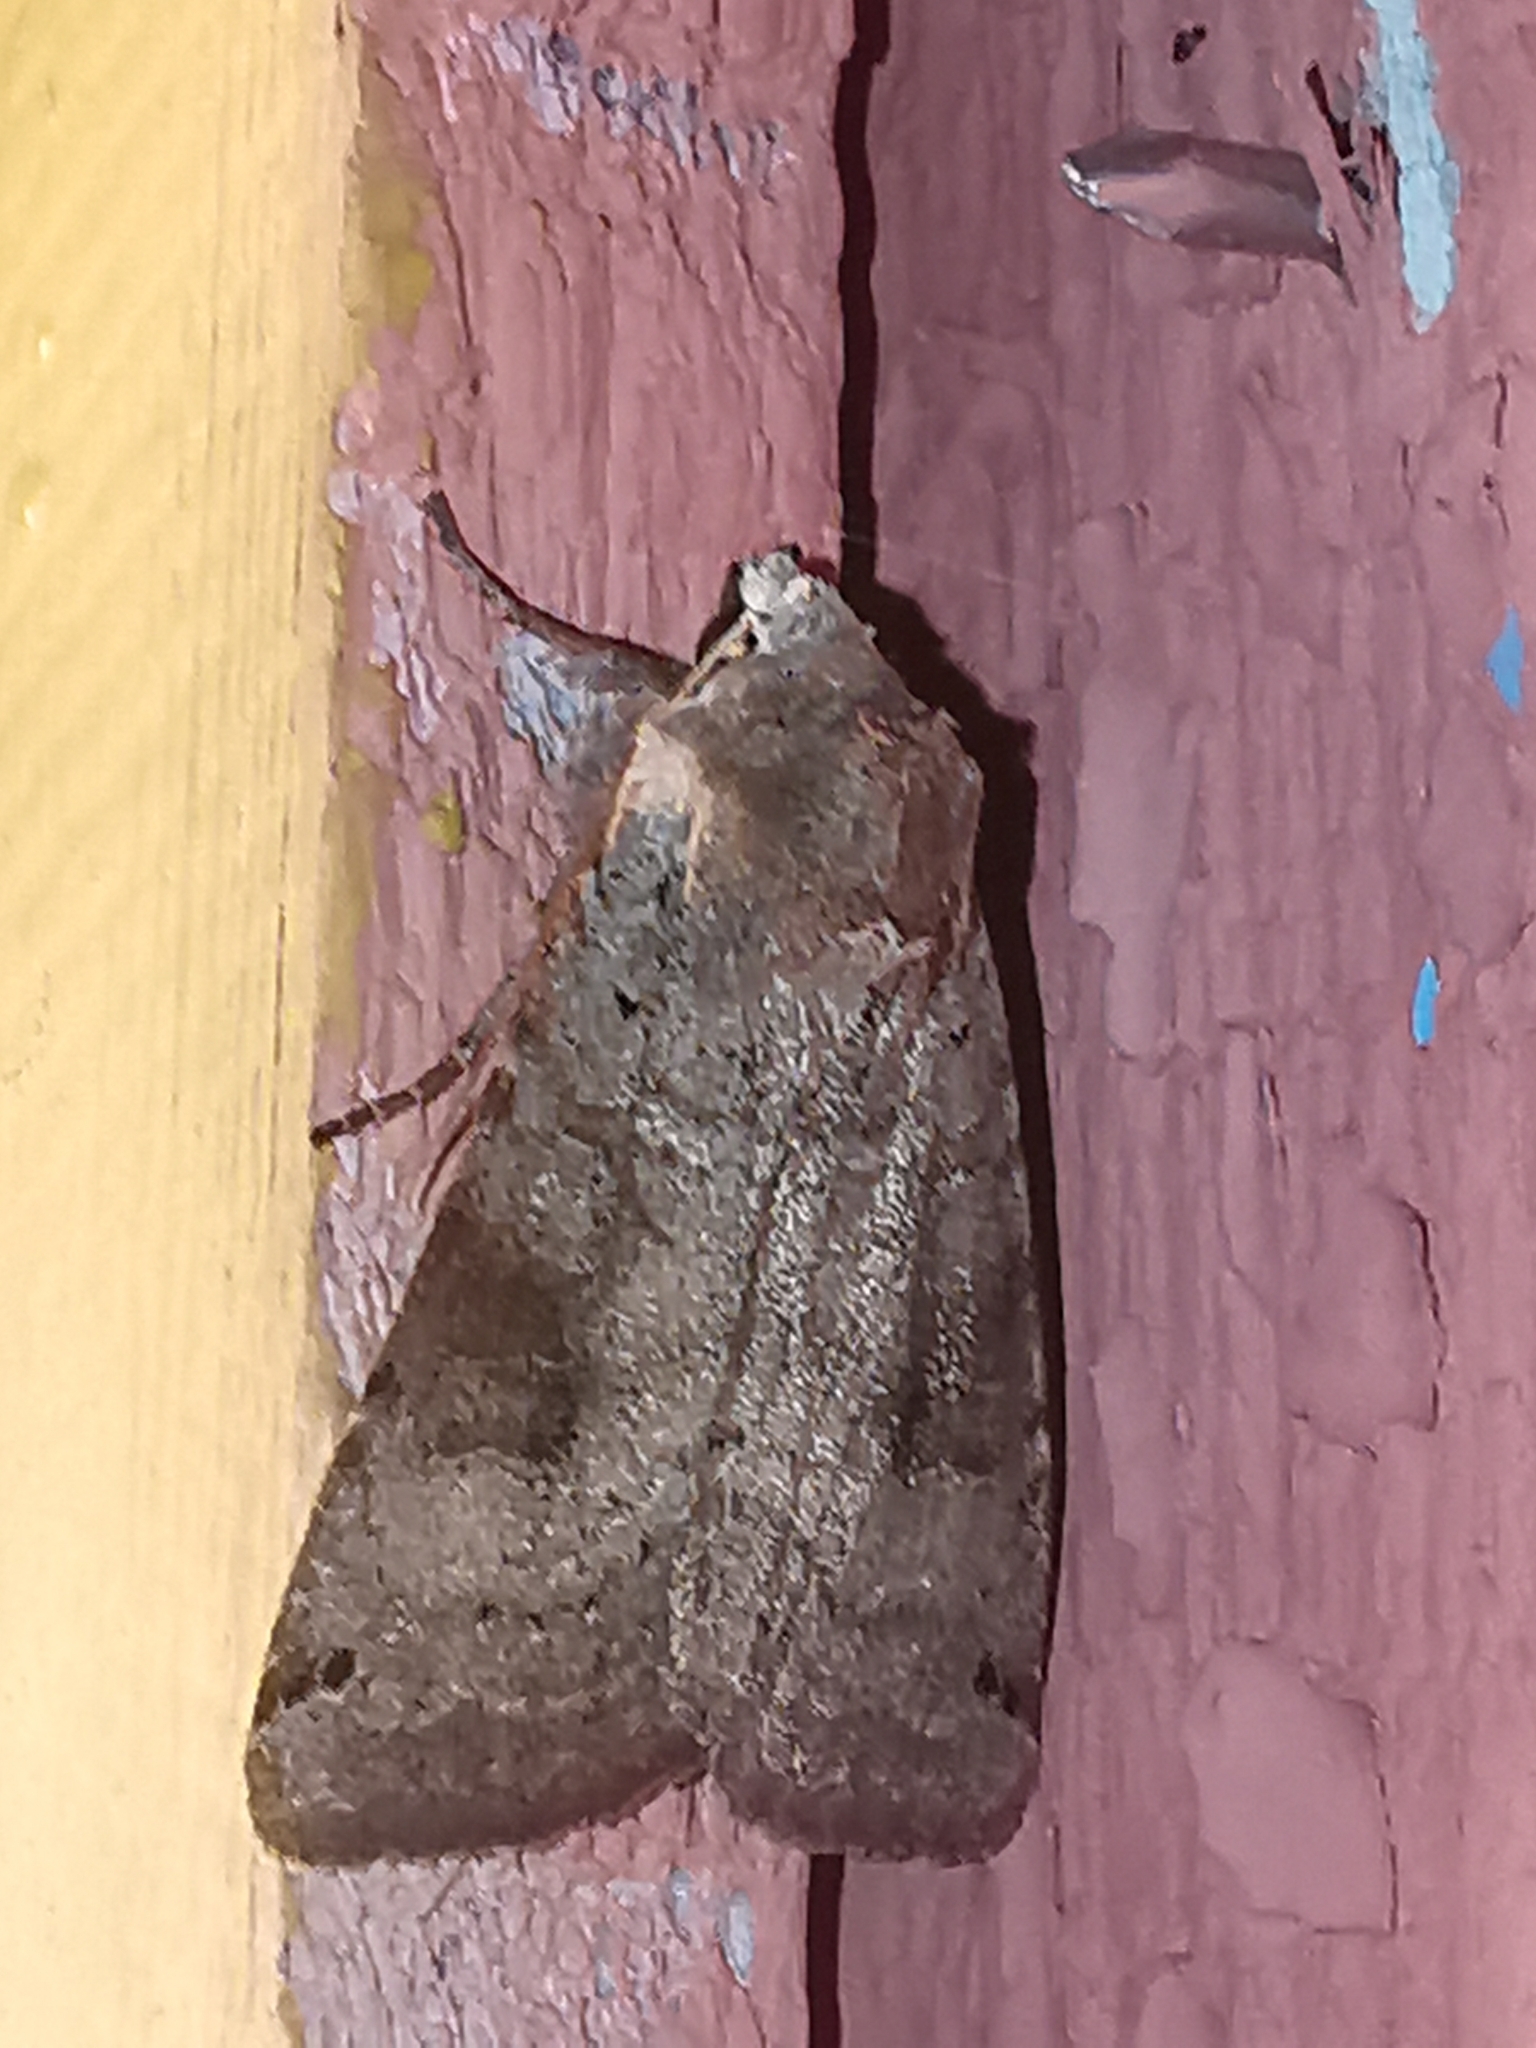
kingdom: Animalia
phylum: Arthropoda
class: Insecta
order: Lepidoptera
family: Noctuidae
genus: Xestia
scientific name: Xestia baja
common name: Dotted clay
